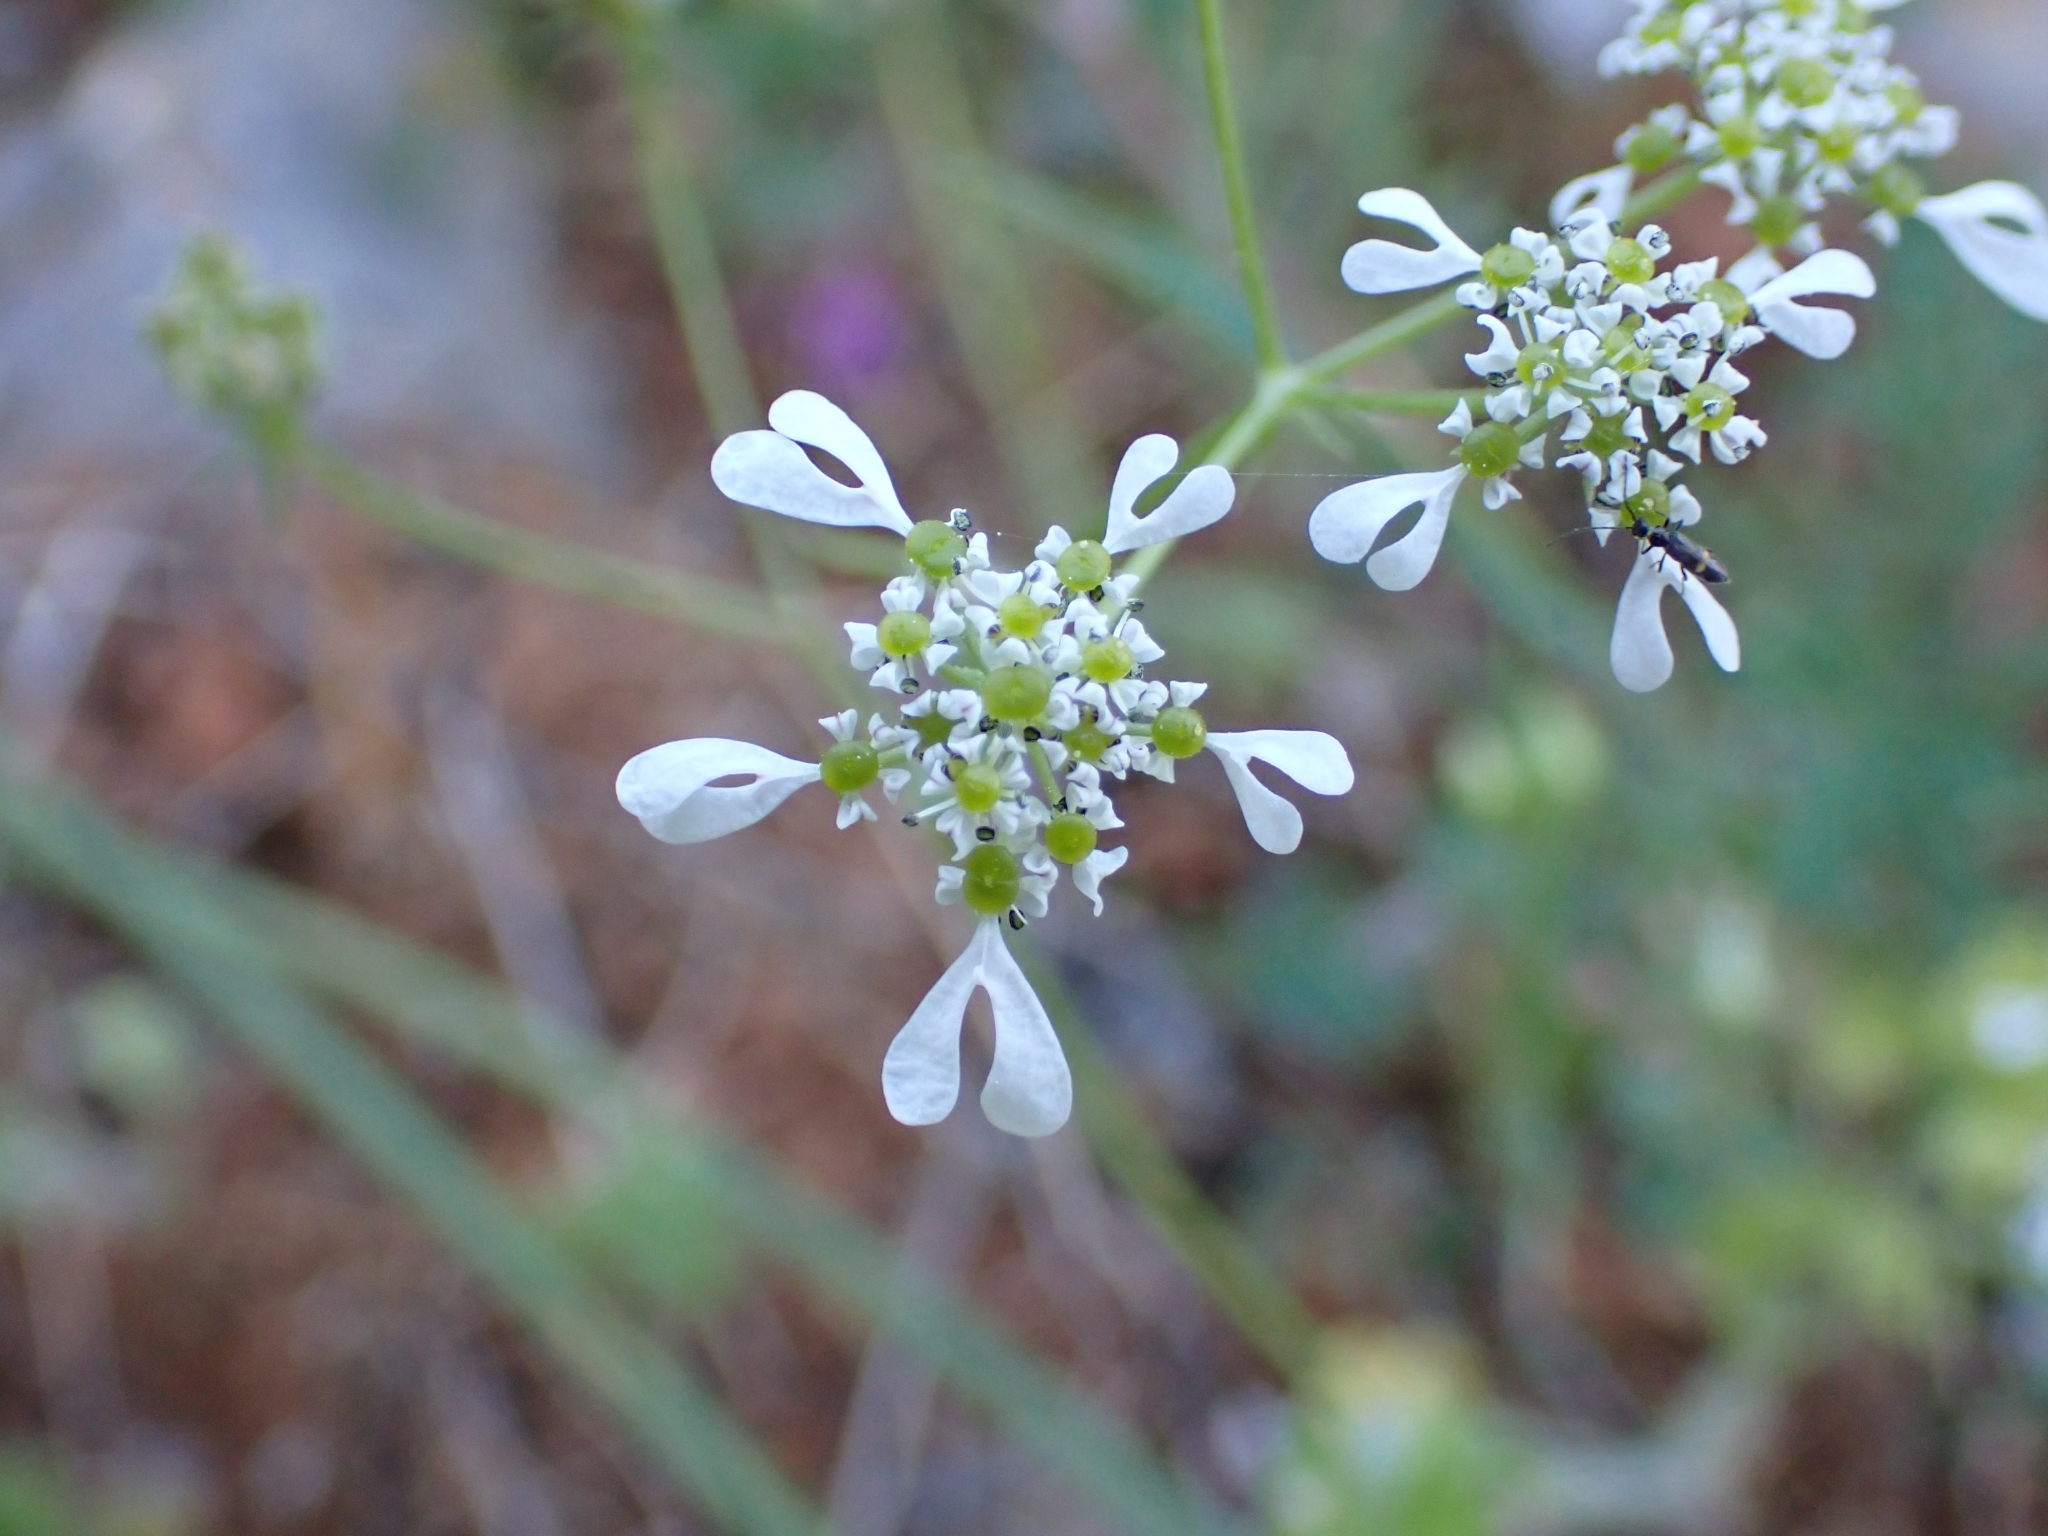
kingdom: Plantae
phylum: Tracheophyta
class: Magnoliopsida
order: Apiales
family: Apiaceae
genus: Tordylium
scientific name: Tordylium apulum
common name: Mediterranean hartwort
